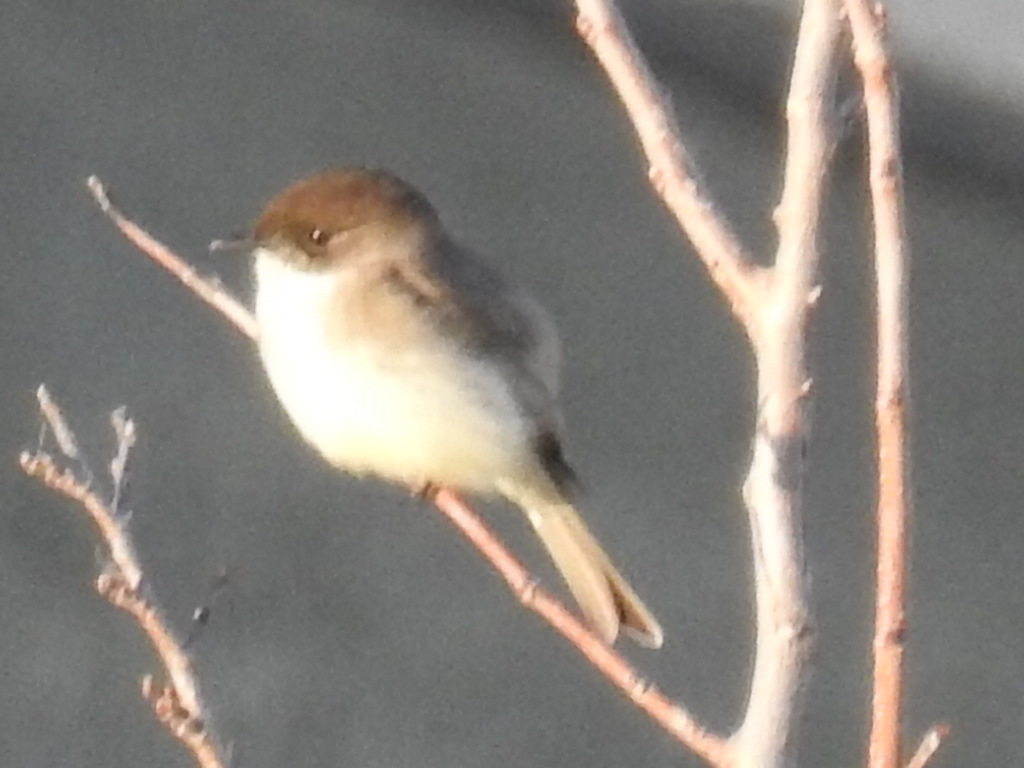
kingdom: Animalia
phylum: Chordata
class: Aves
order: Passeriformes
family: Tyrannidae
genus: Sayornis
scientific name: Sayornis phoebe
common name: Eastern phoebe
